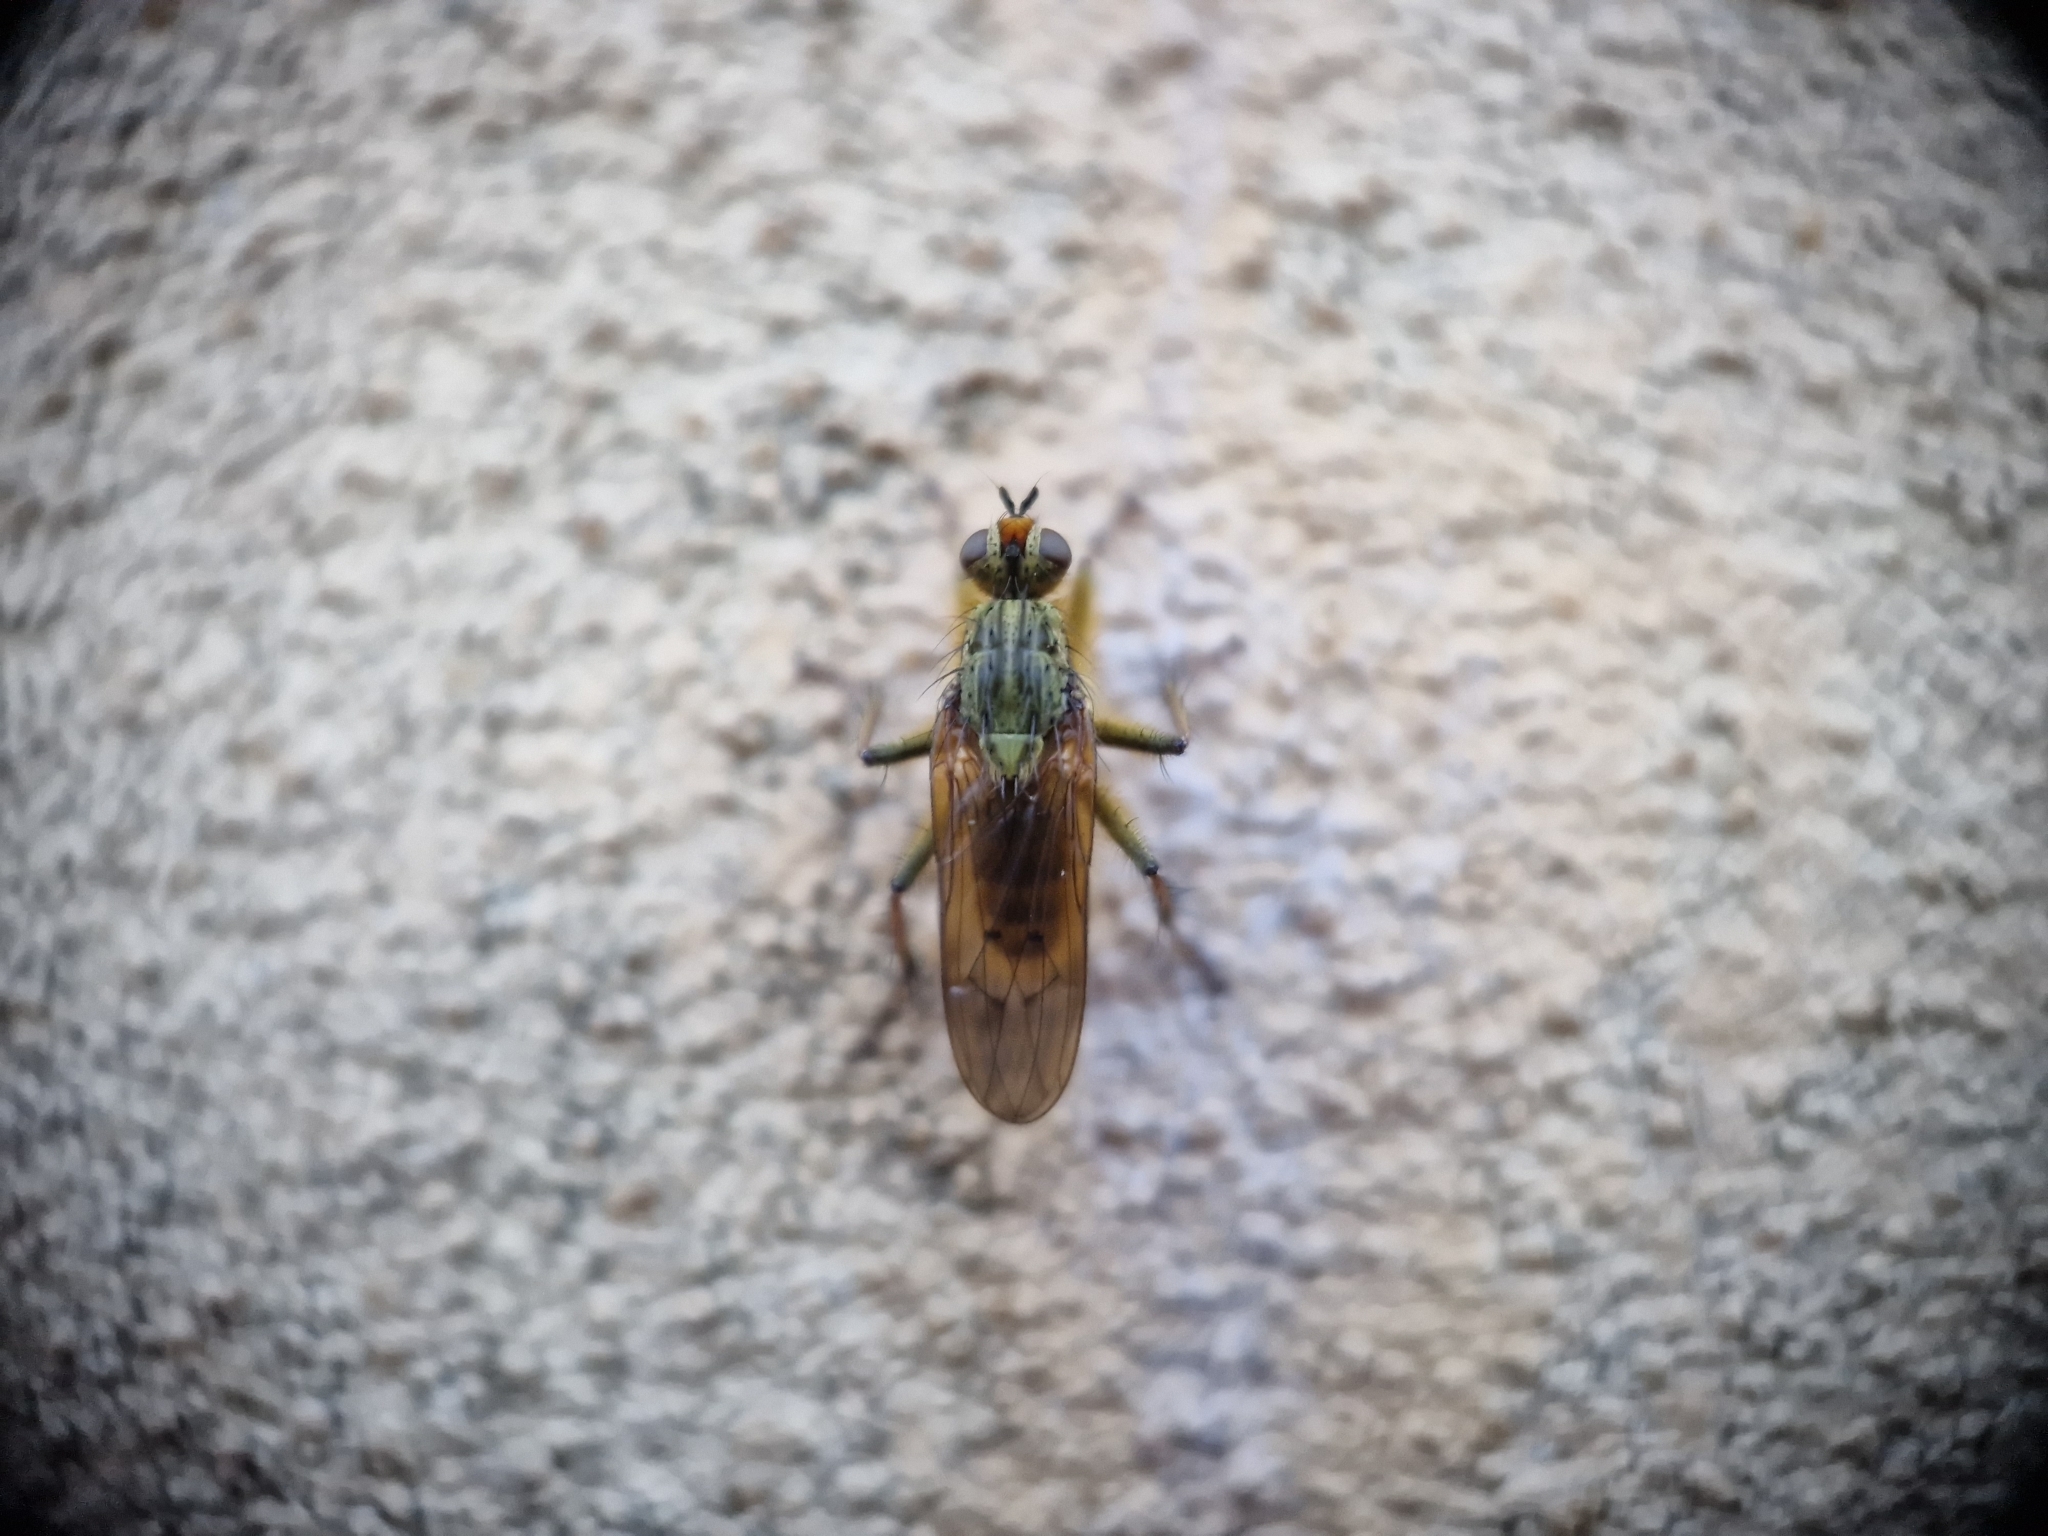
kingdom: Animalia
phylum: Arthropoda
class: Insecta
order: Diptera
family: Scathophagidae
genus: Scathophaga
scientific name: Scathophaga stercoraria
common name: Yellow dung fly
